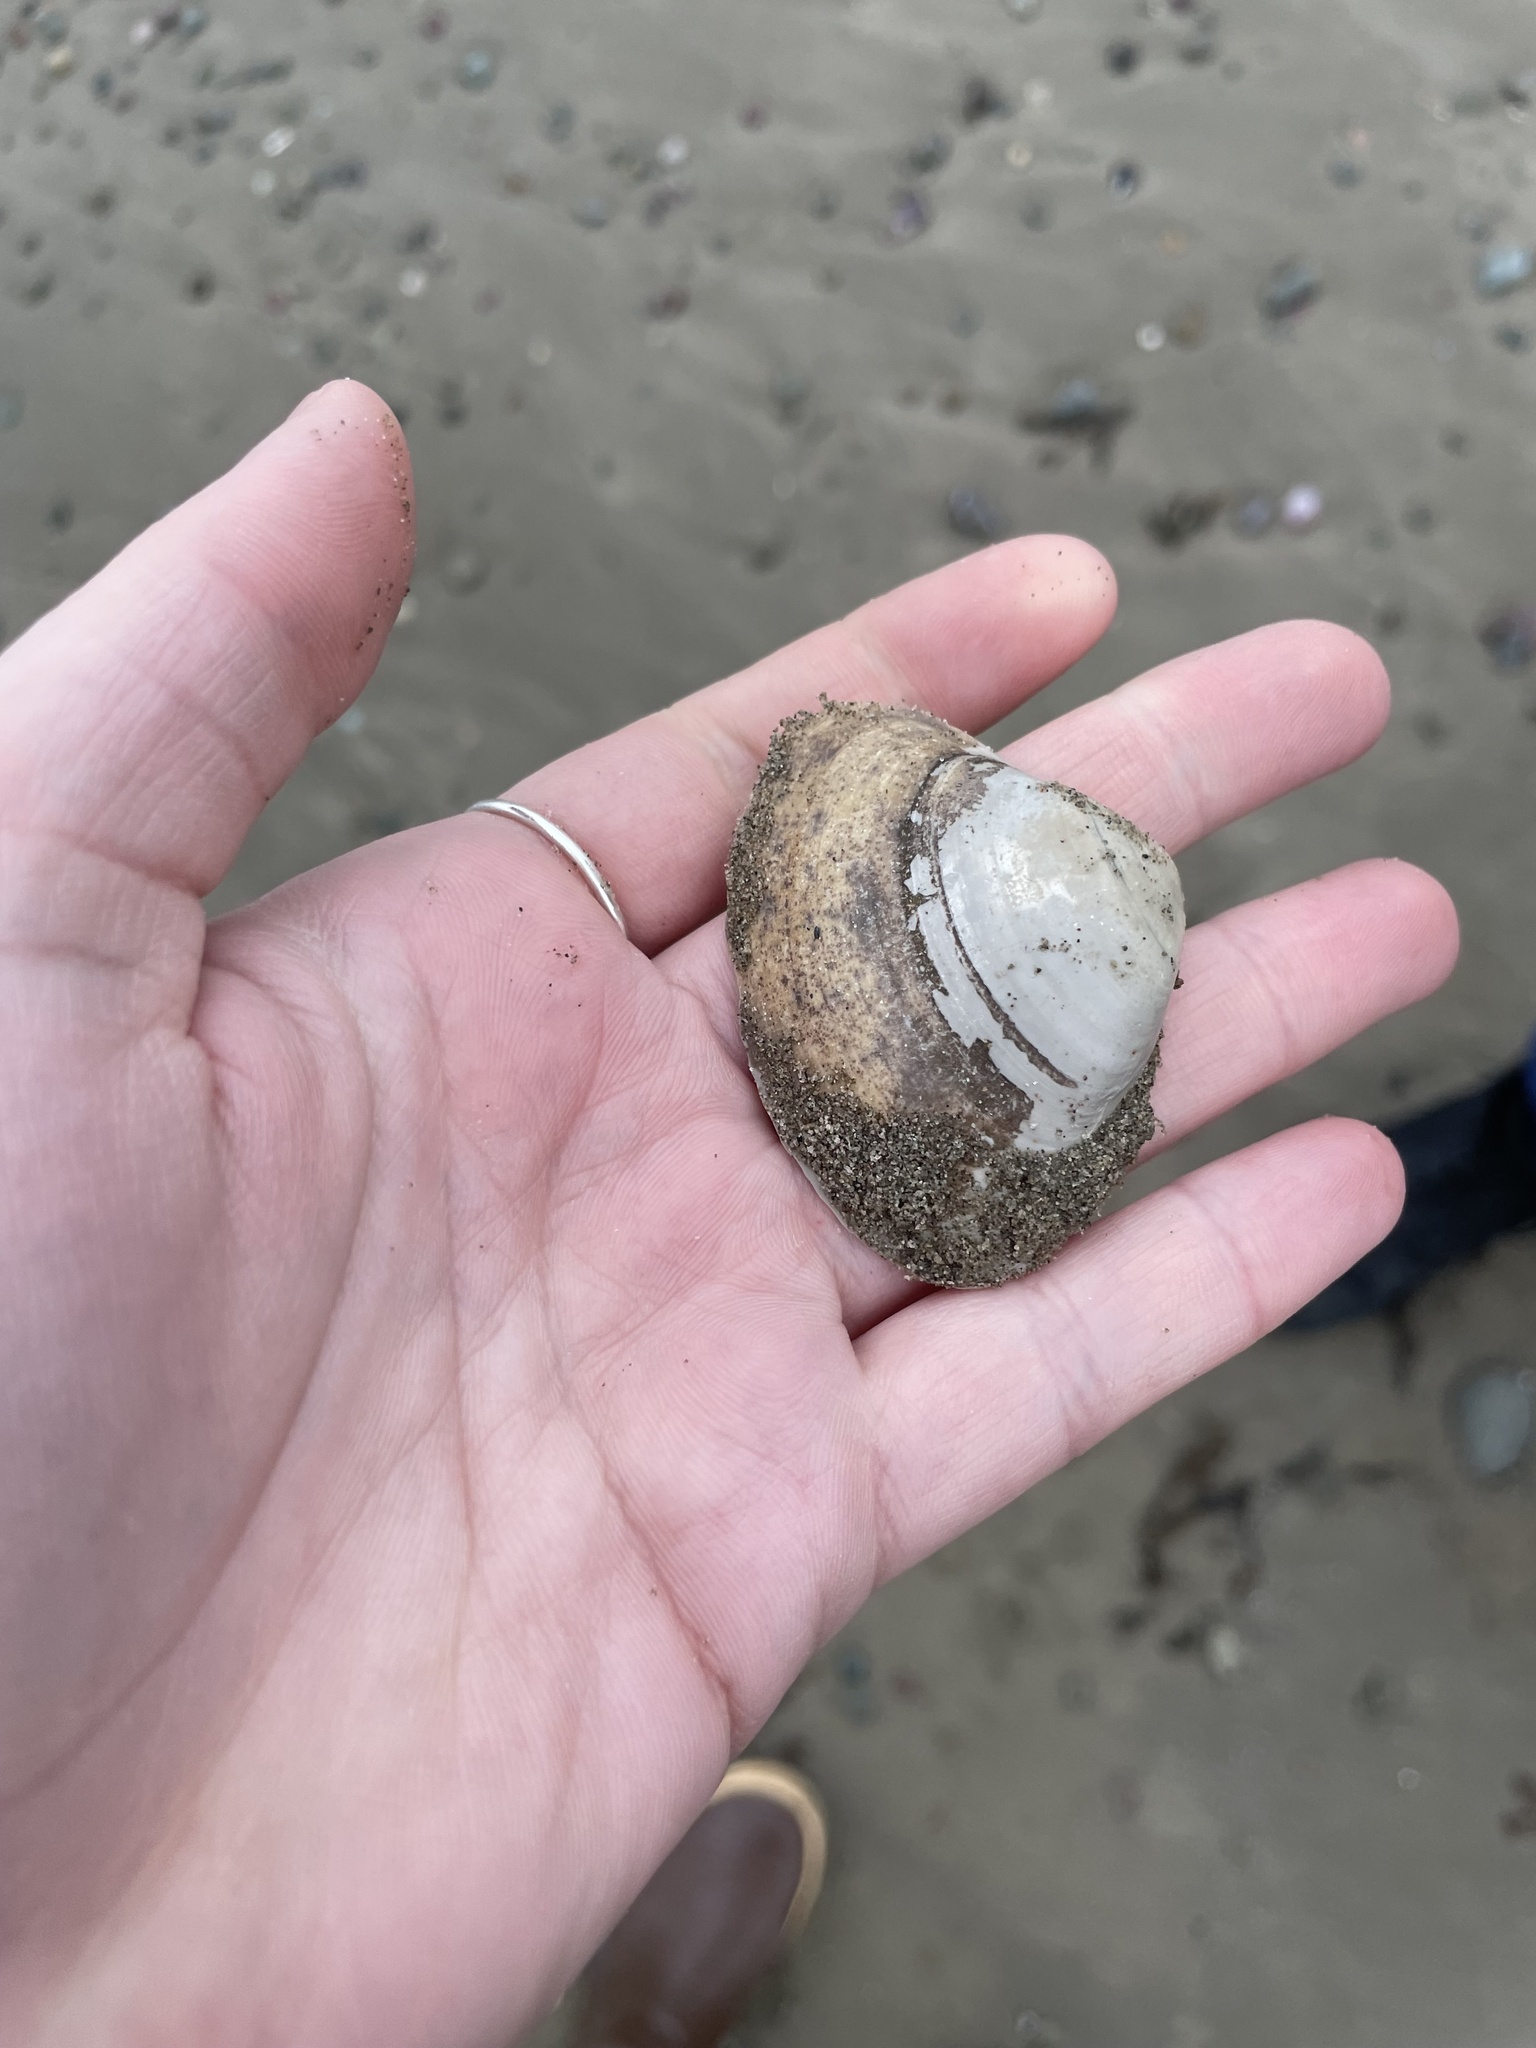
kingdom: Animalia
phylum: Mollusca
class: Bivalvia
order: Venerida
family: Mactridae
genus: Spisula
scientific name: Spisula solidissima
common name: Atlantic surf clam
